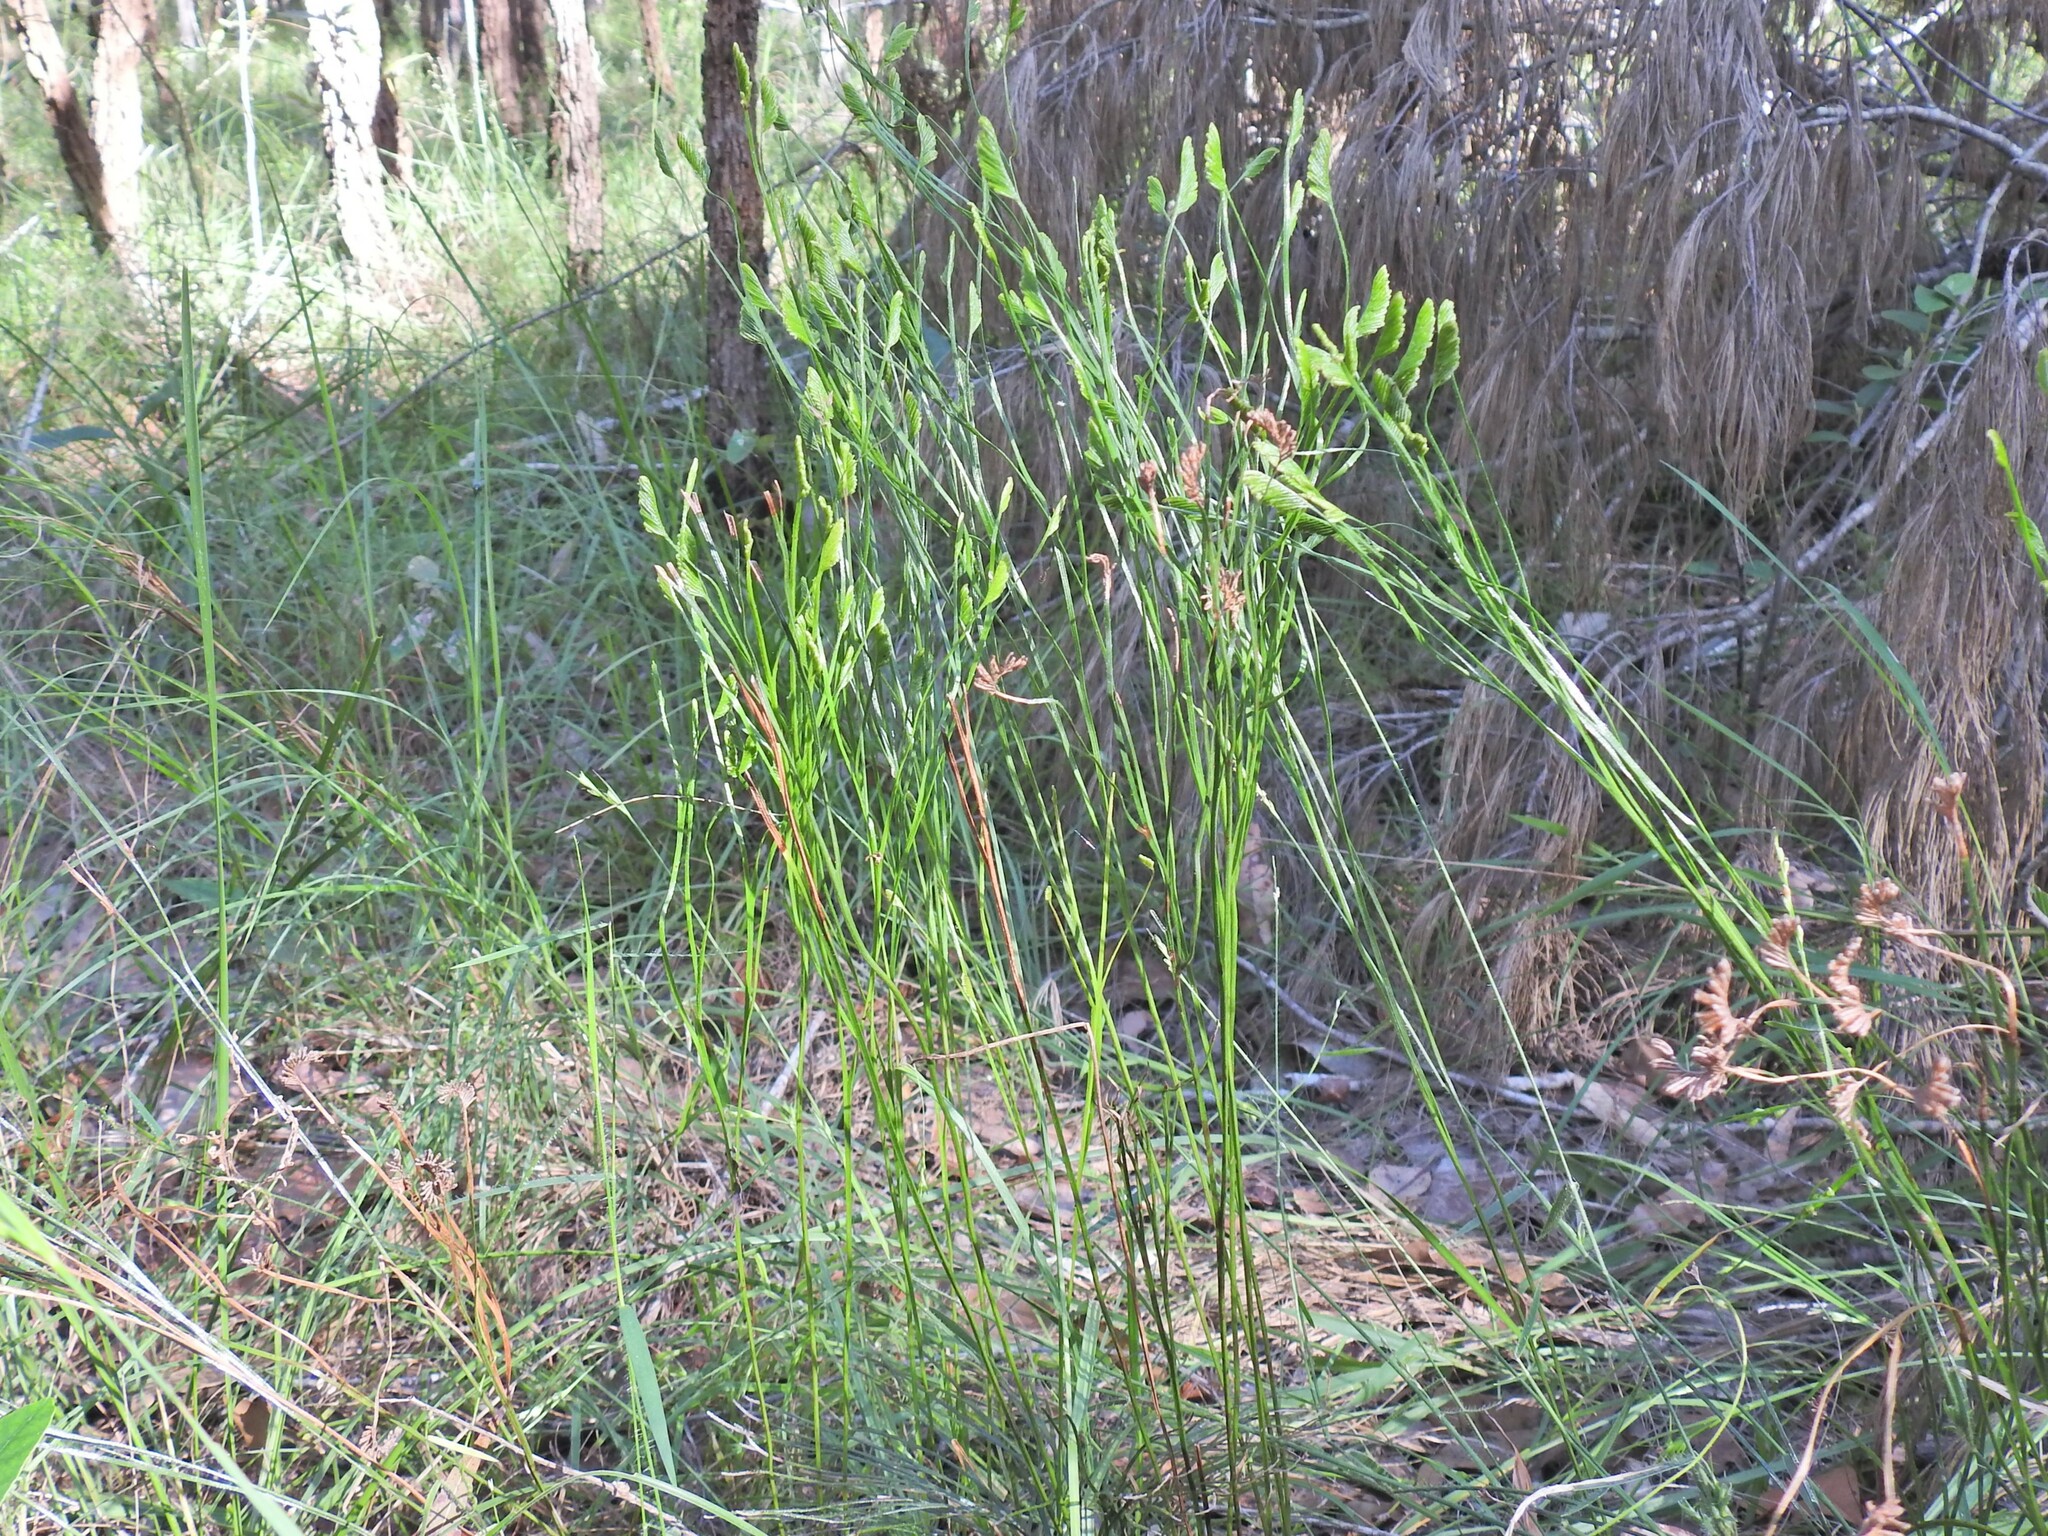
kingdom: Plantae
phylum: Tracheophyta
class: Polypodiopsida
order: Schizaeales
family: Schizaeaceae
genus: Schizaea
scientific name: Schizaea bifida
